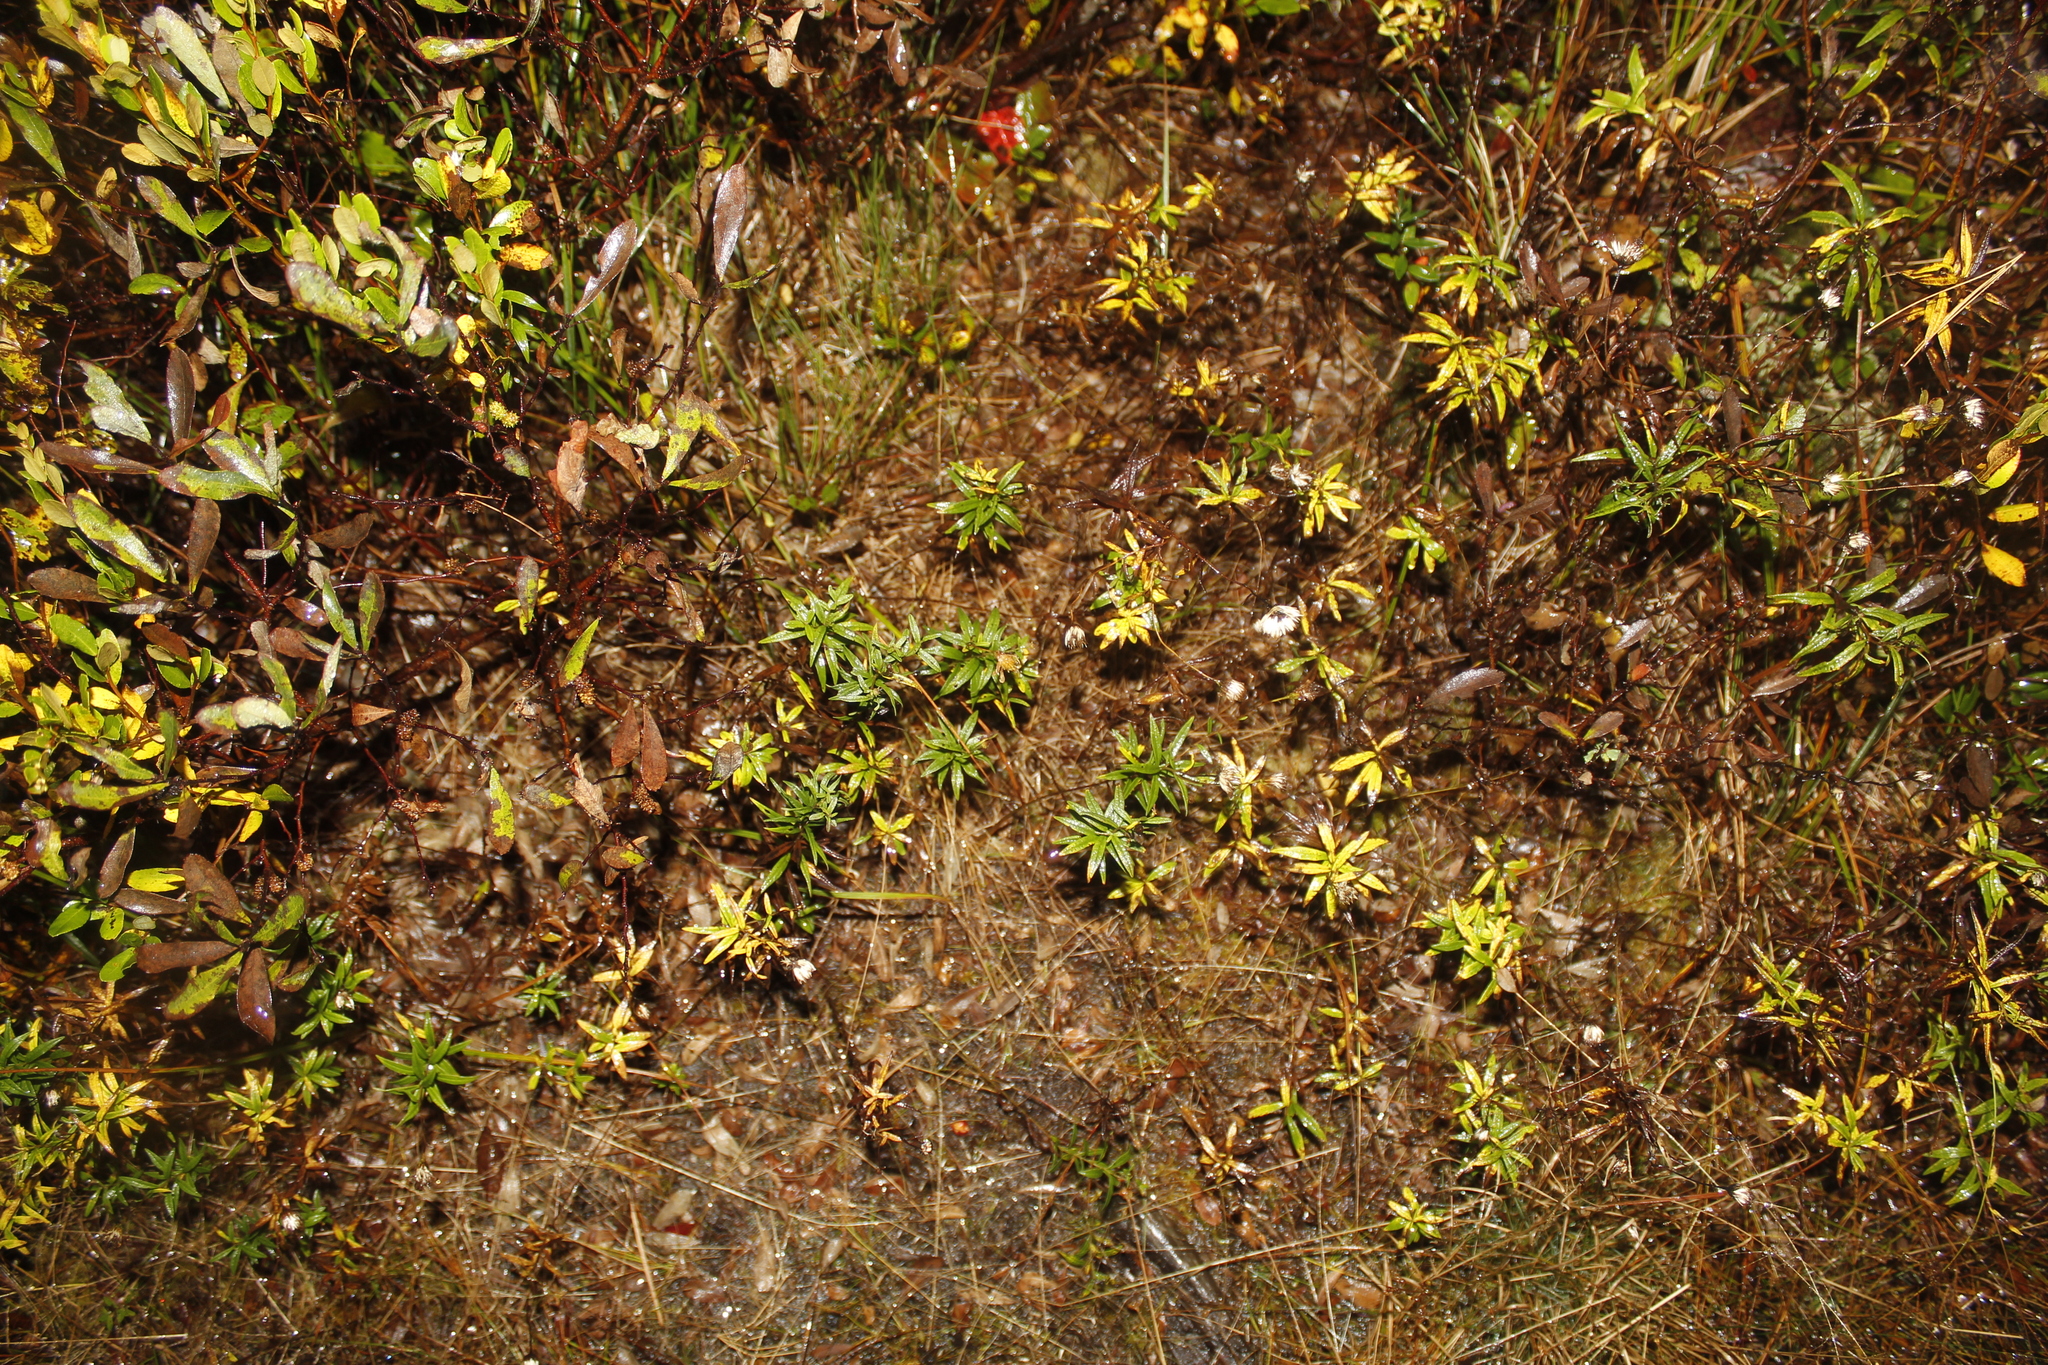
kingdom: Plantae
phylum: Tracheophyta
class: Magnoliopsida
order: Asterales
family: Asteraceae
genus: Oclemena
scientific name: Oclemena nemoralis
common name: Bog aster
